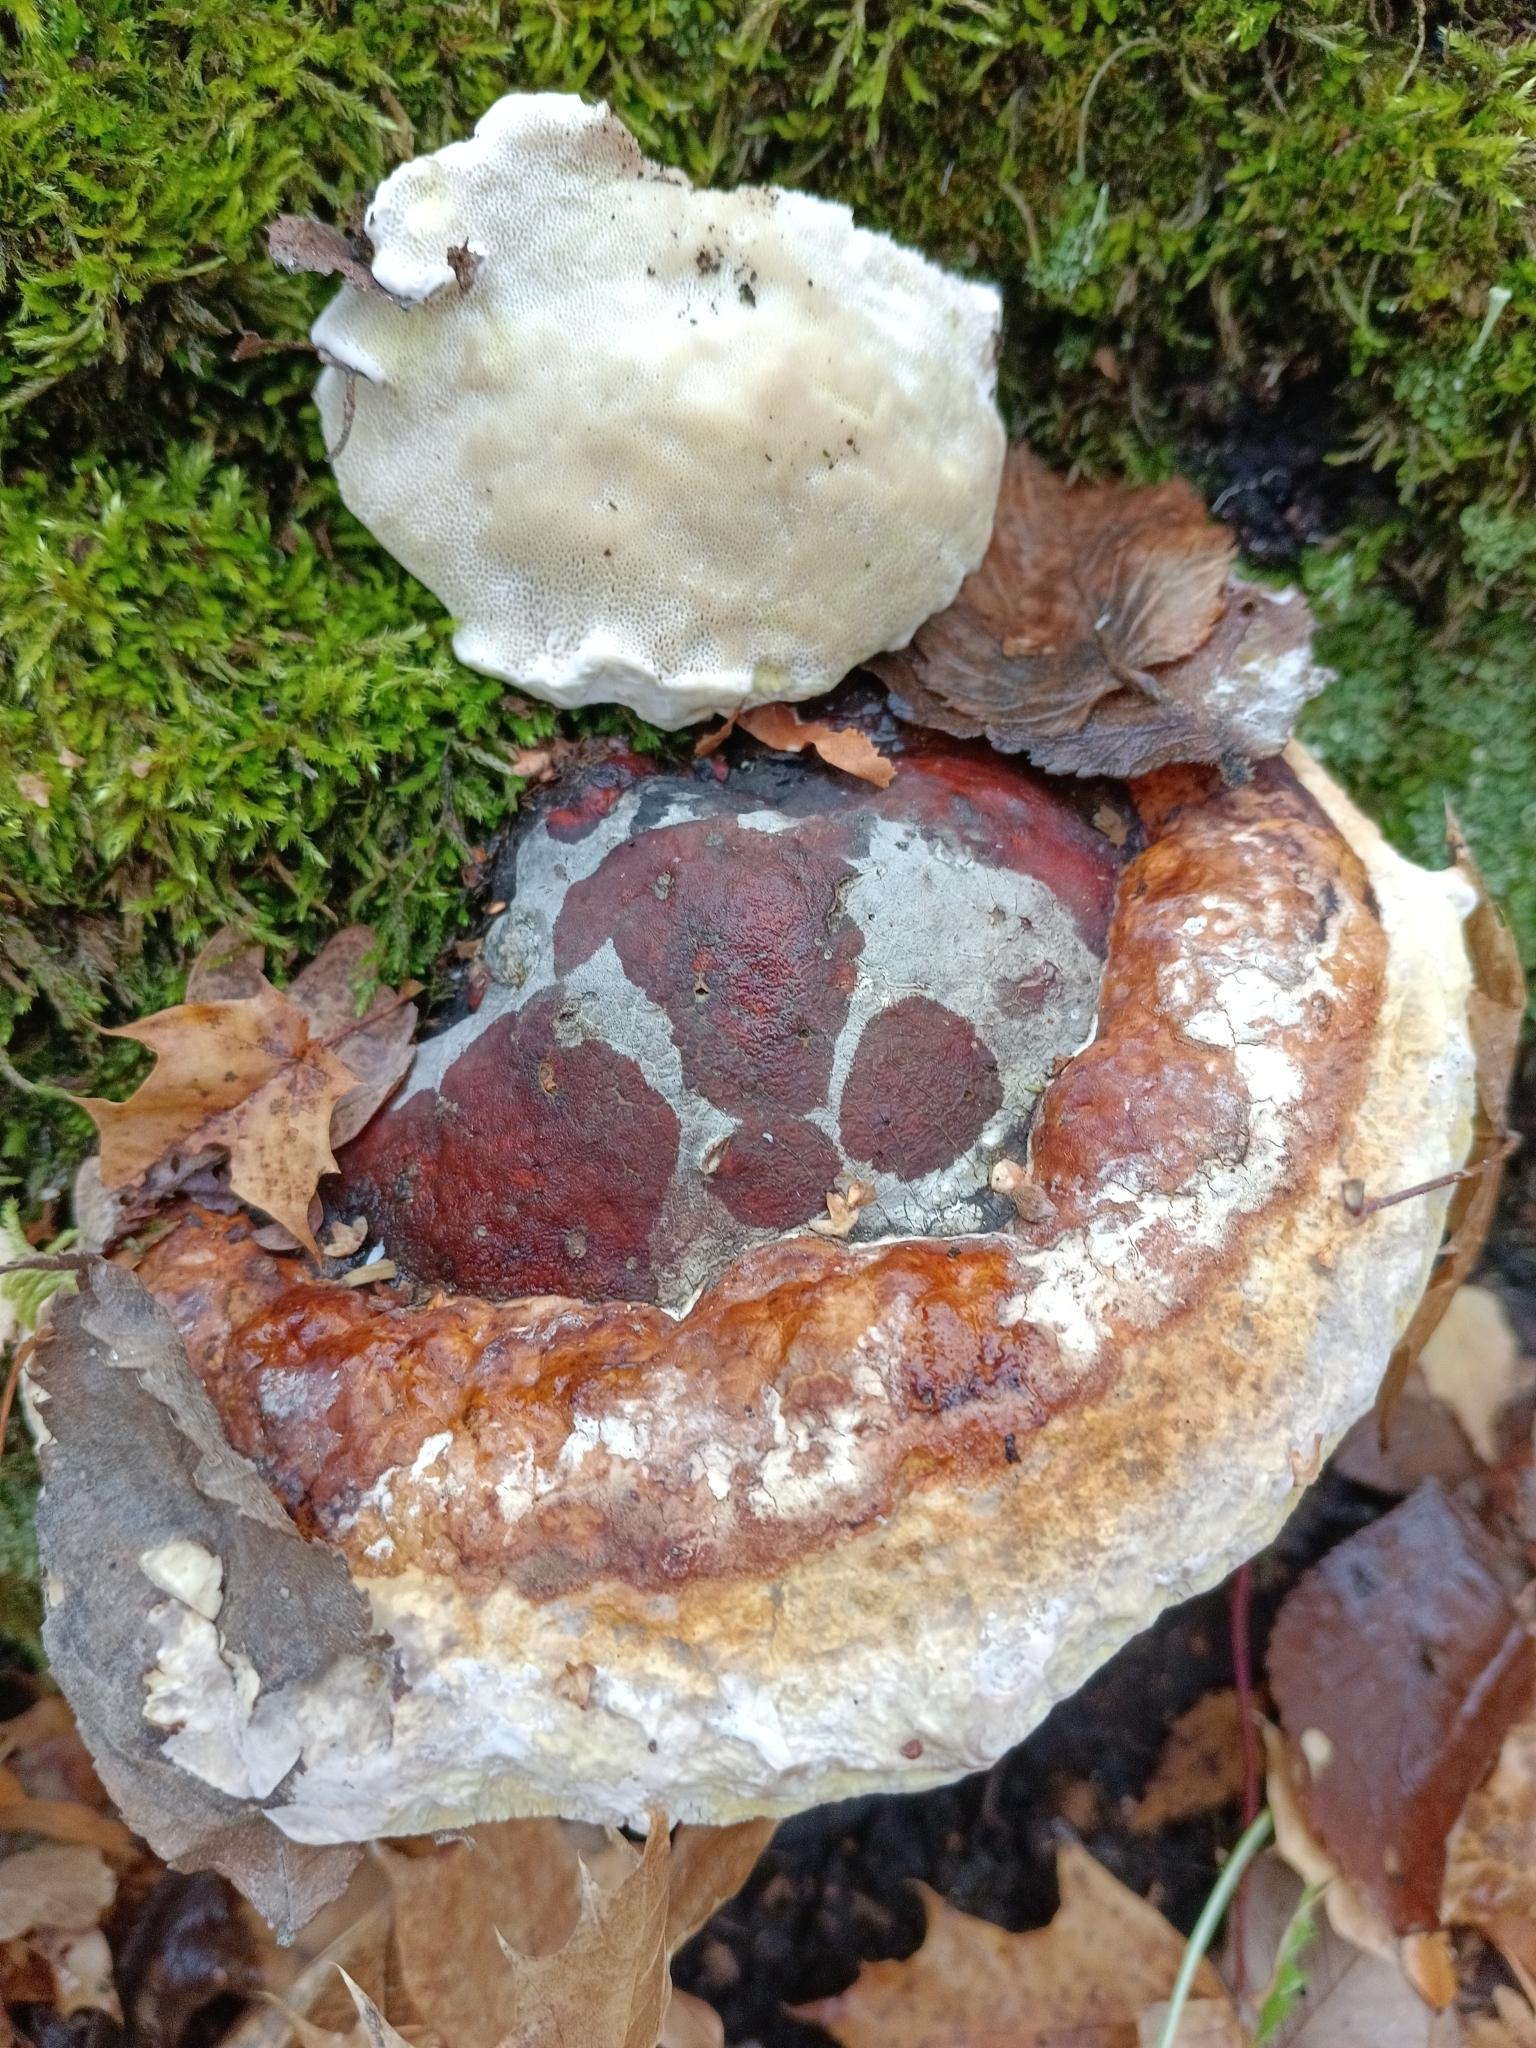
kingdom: Fungi
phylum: Basidiomycota
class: Agaricomycetes
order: Polyporales
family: Fomitopsidaceae
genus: Fomitopsis
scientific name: Fomitopsis pinicola
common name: Red-belted bracket
